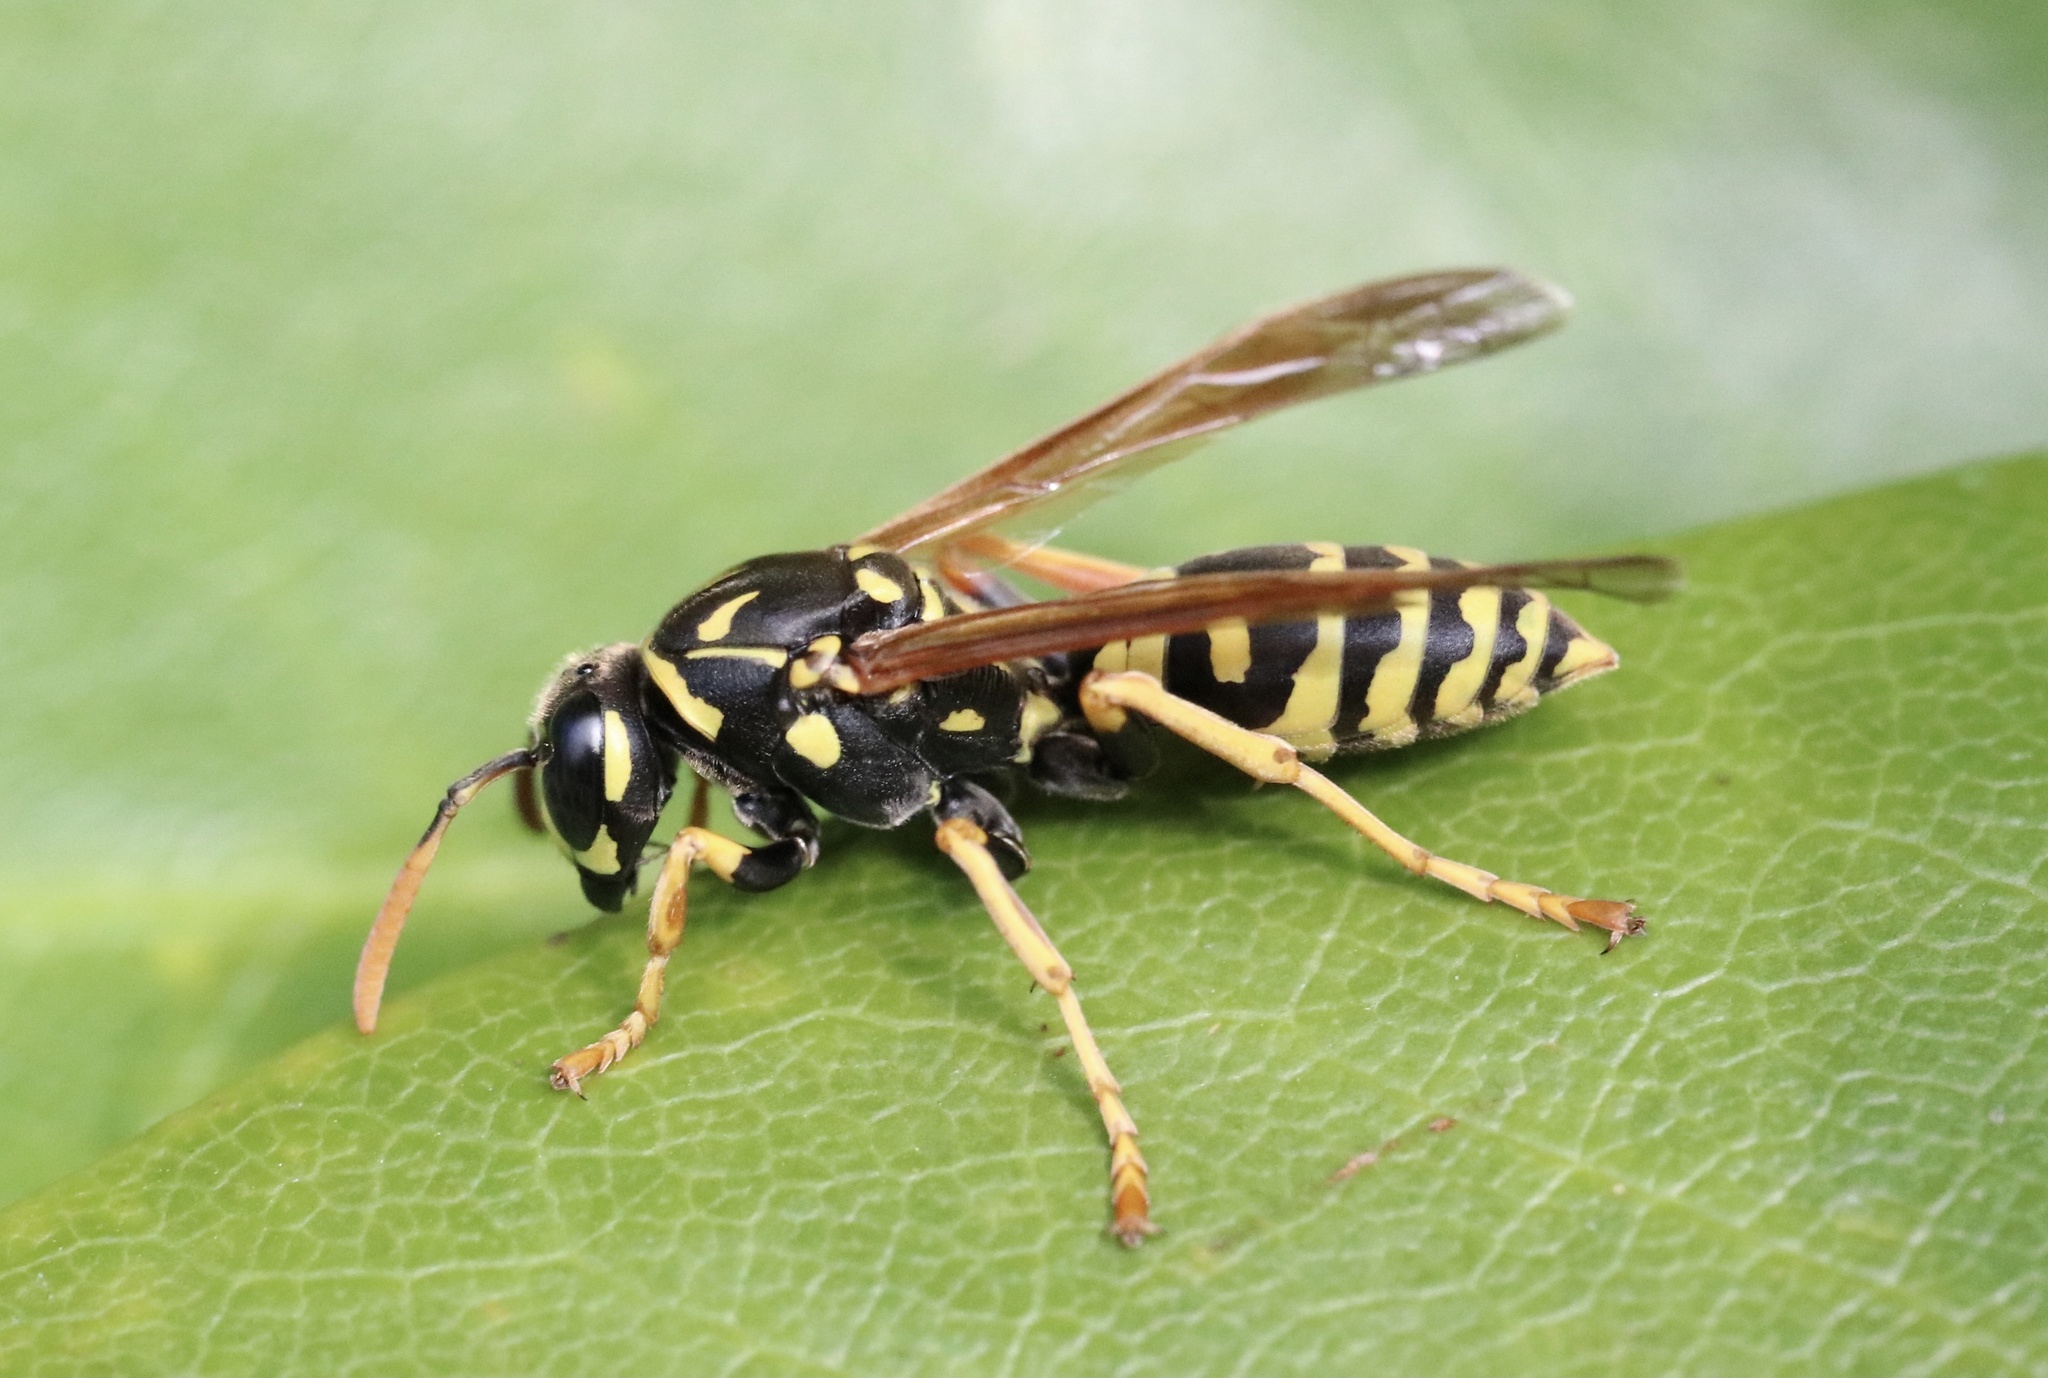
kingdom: Animalia
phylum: Arthropoda
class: Insecta
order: Hymenoptera
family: Eumenidae
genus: Polistes
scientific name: Polistes dominula
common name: Paper wasp
